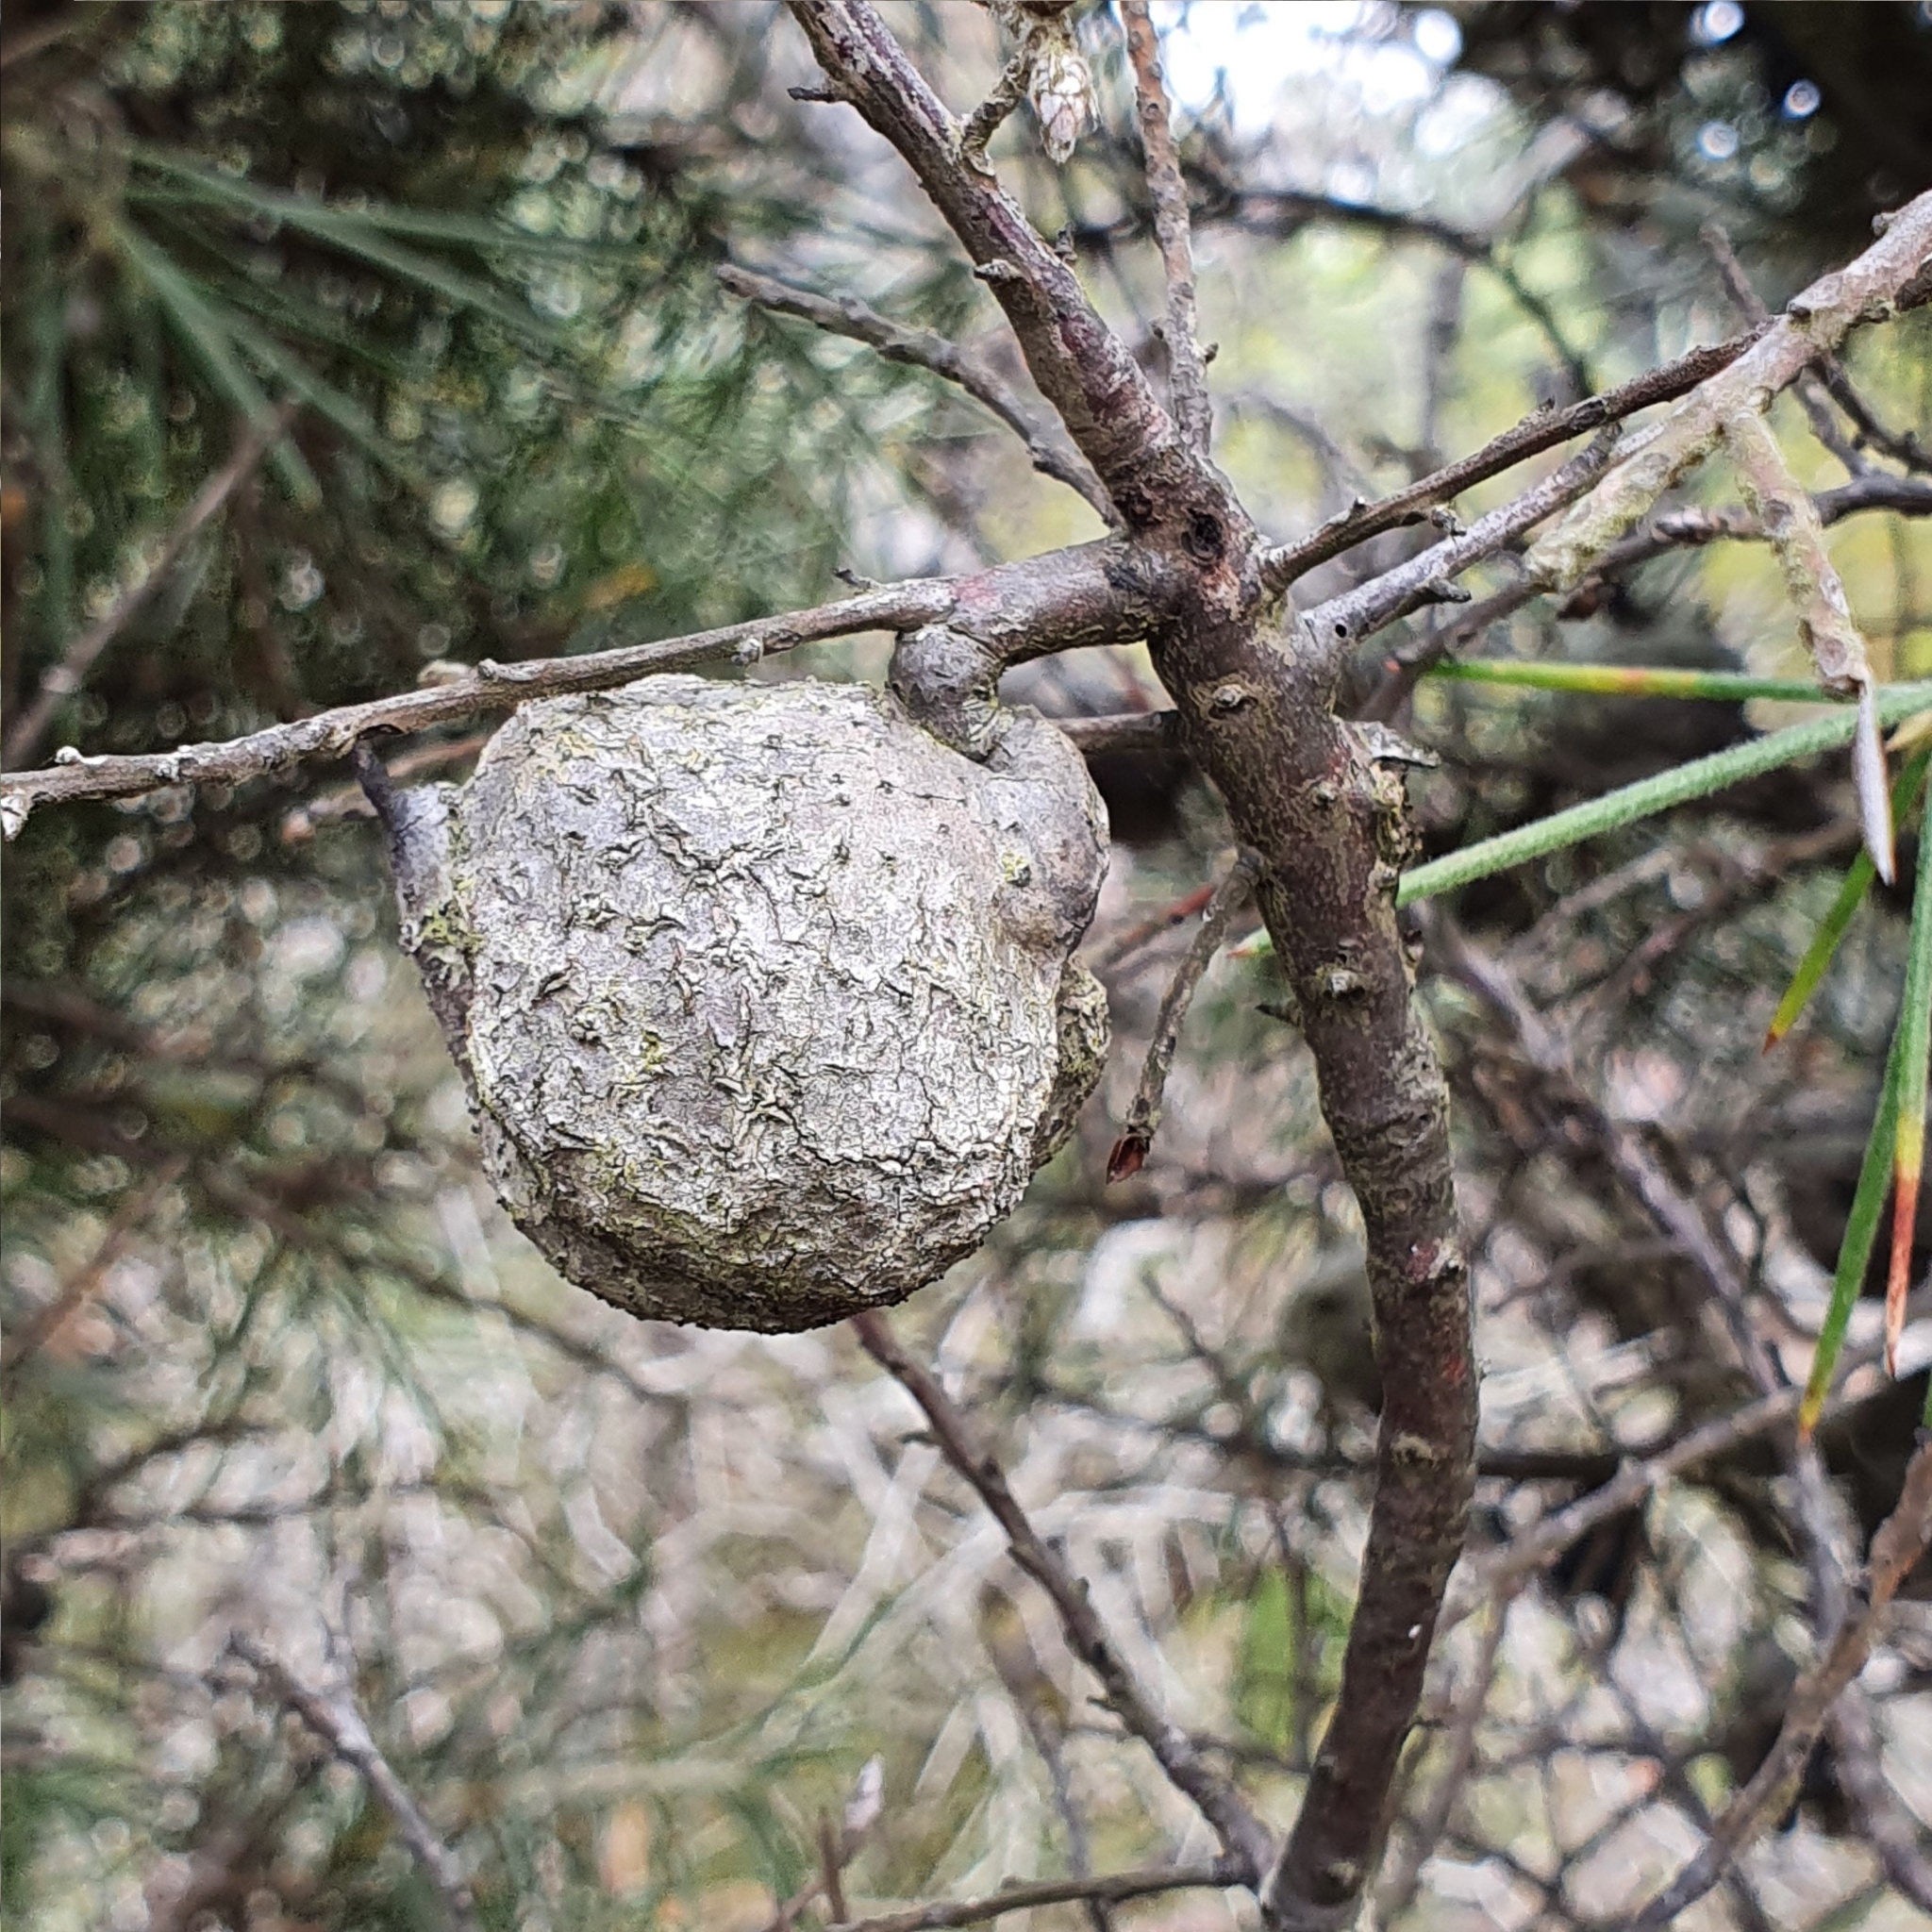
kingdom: Plantae
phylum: Tracheophyta
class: Magnoliopsida
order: Proteales
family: Proteaceae
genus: Hakea
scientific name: Hakea gibbosa
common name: Rock hakea
